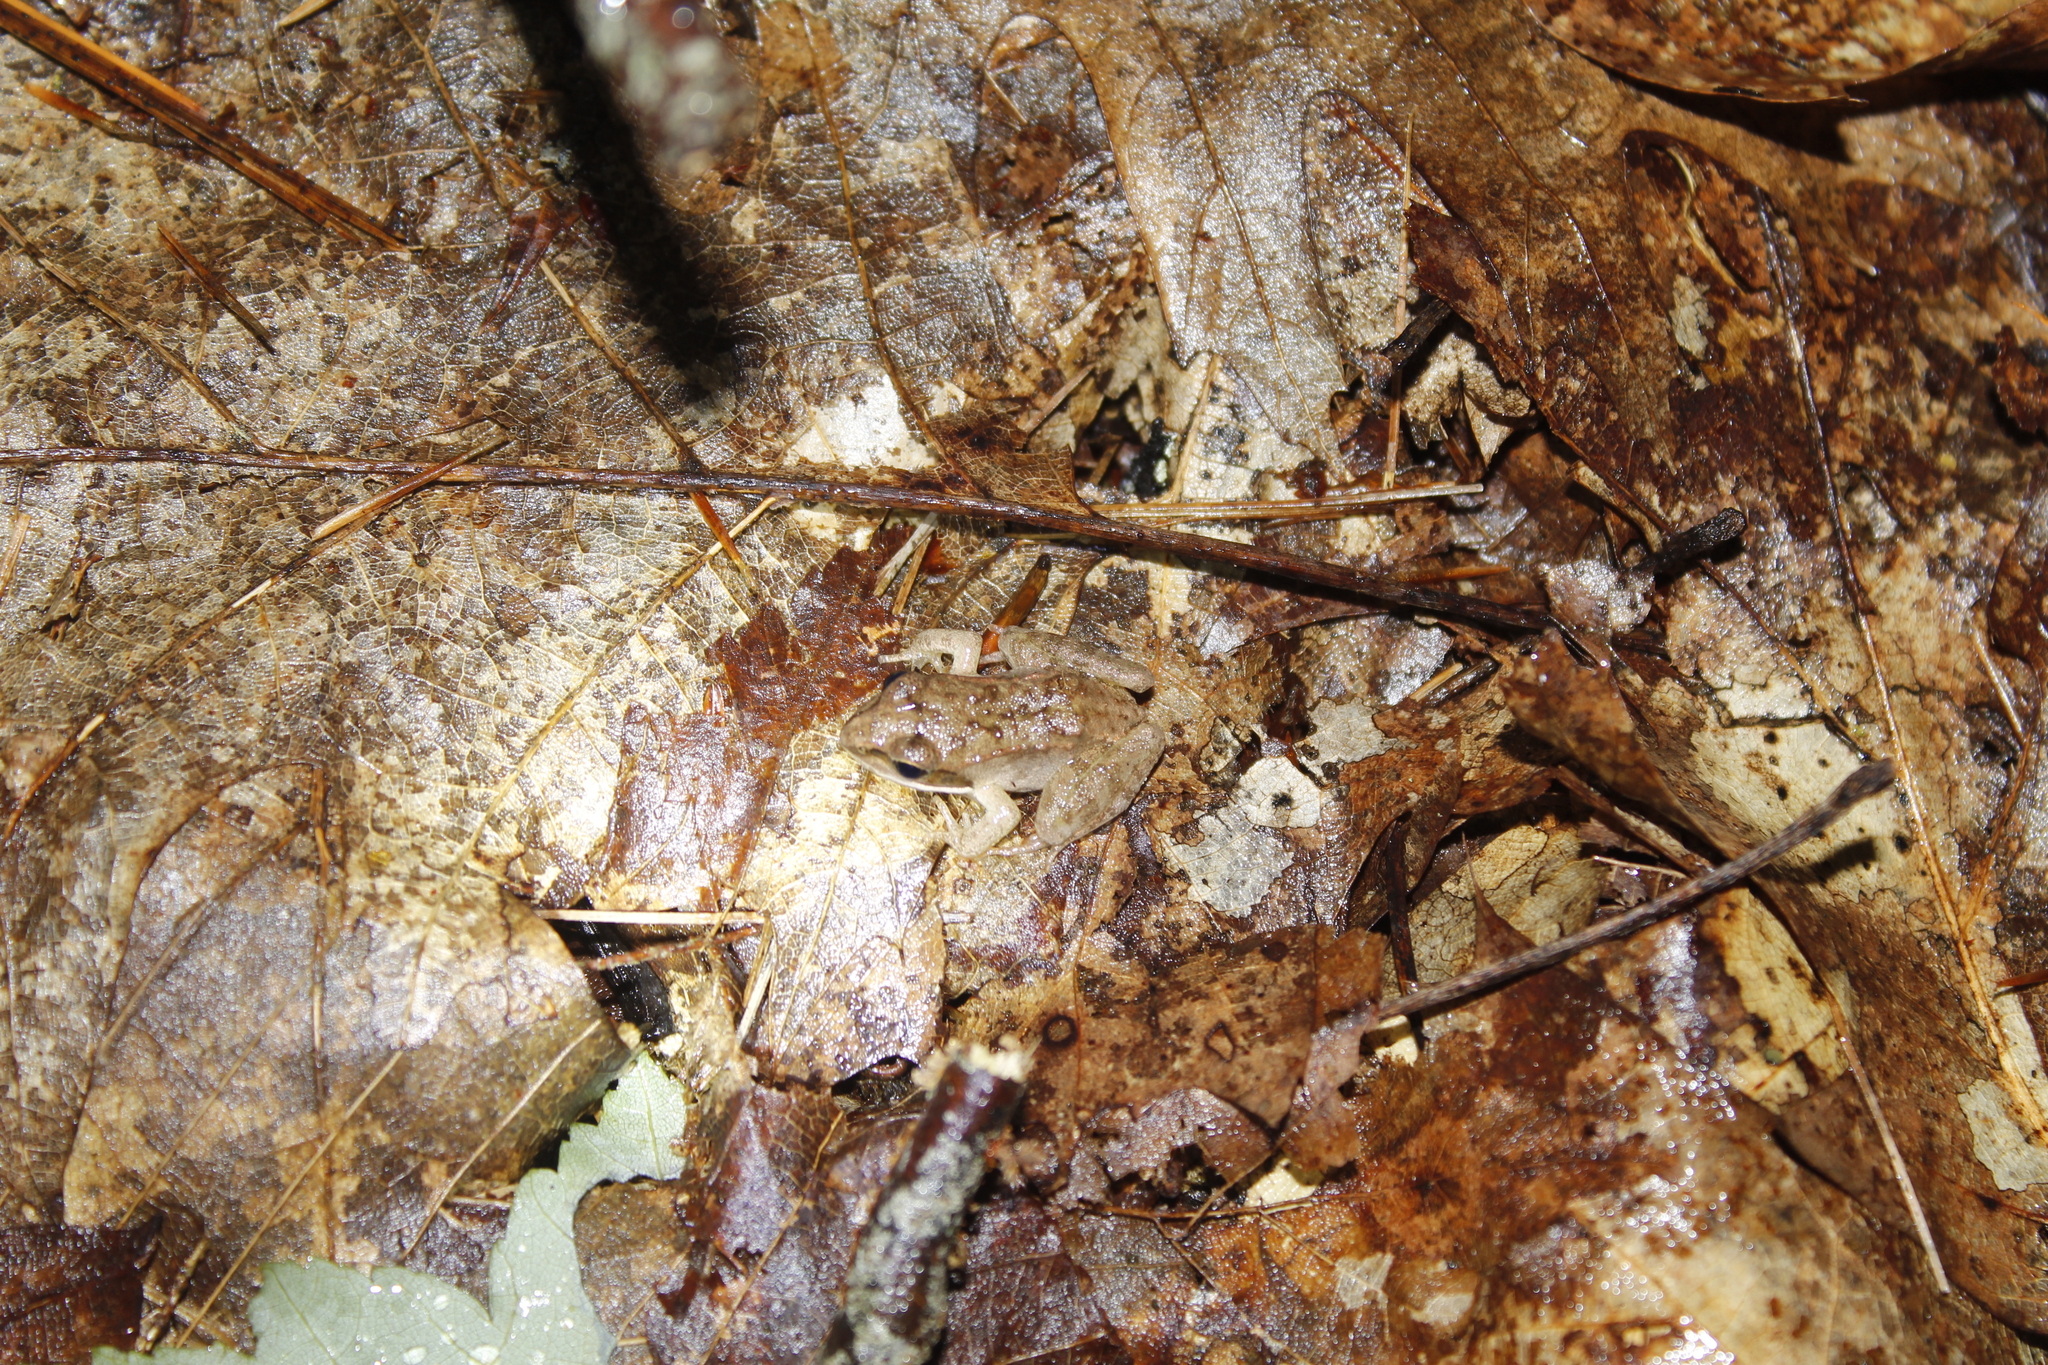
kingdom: Animalia
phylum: Chordata
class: Amphibia
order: Anura
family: Ranidae
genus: Lithobates
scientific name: Lithobates sylvaticus
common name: Wood frog
